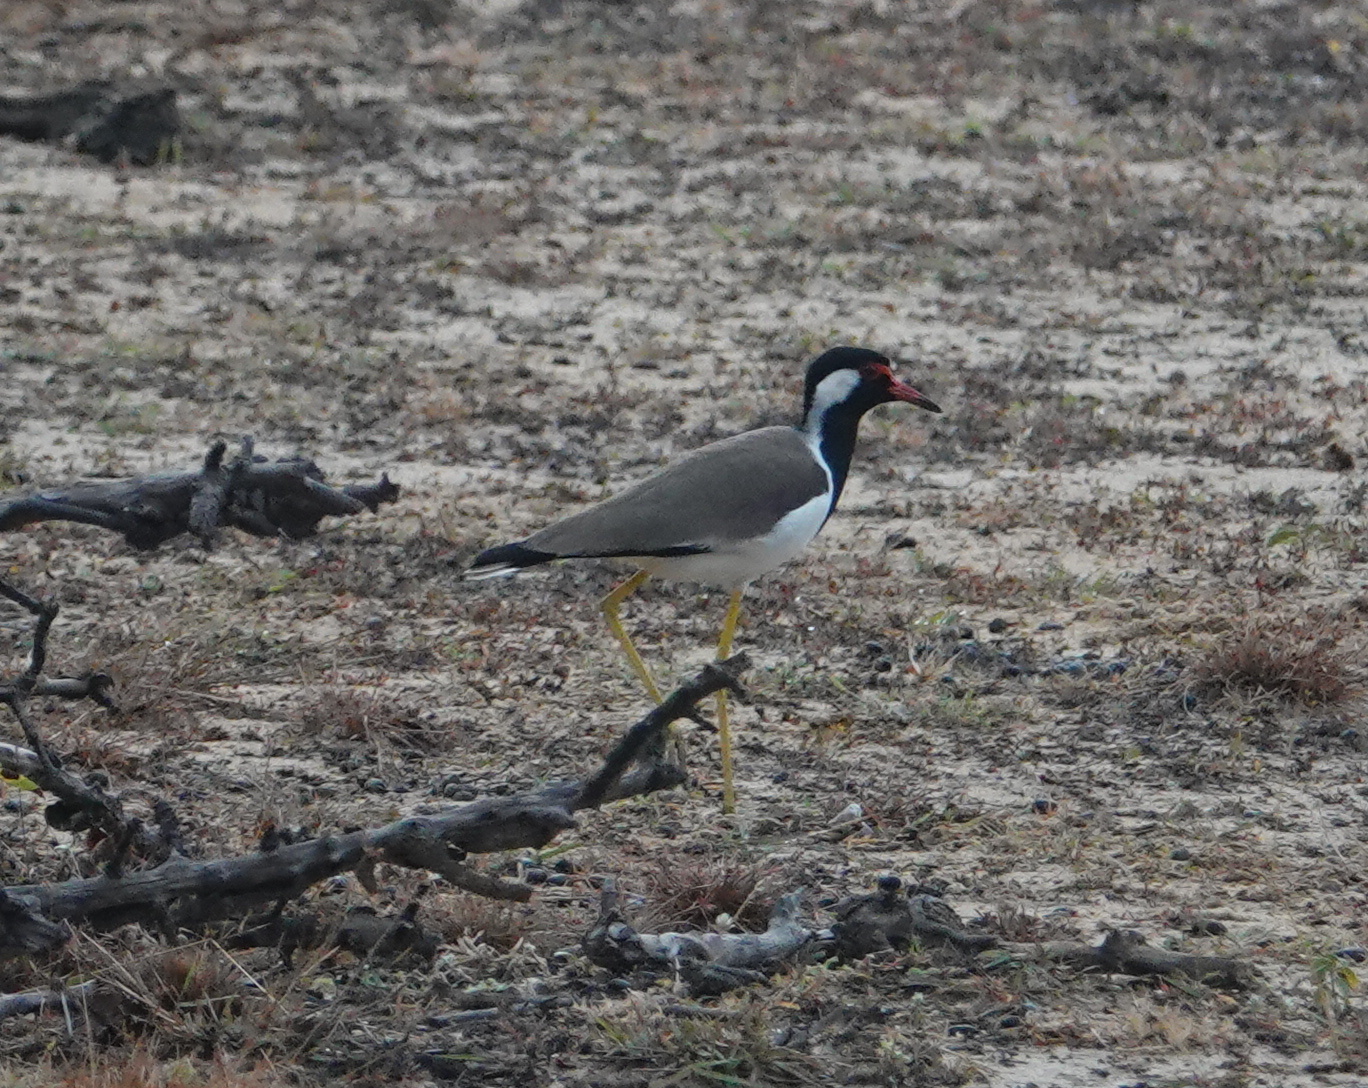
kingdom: Animalia
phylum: Chordata
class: Aves
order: Charadriiformes
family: Charadriidae
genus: Vanellus
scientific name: Vanellus indicus
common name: Red-wattled lapwing
